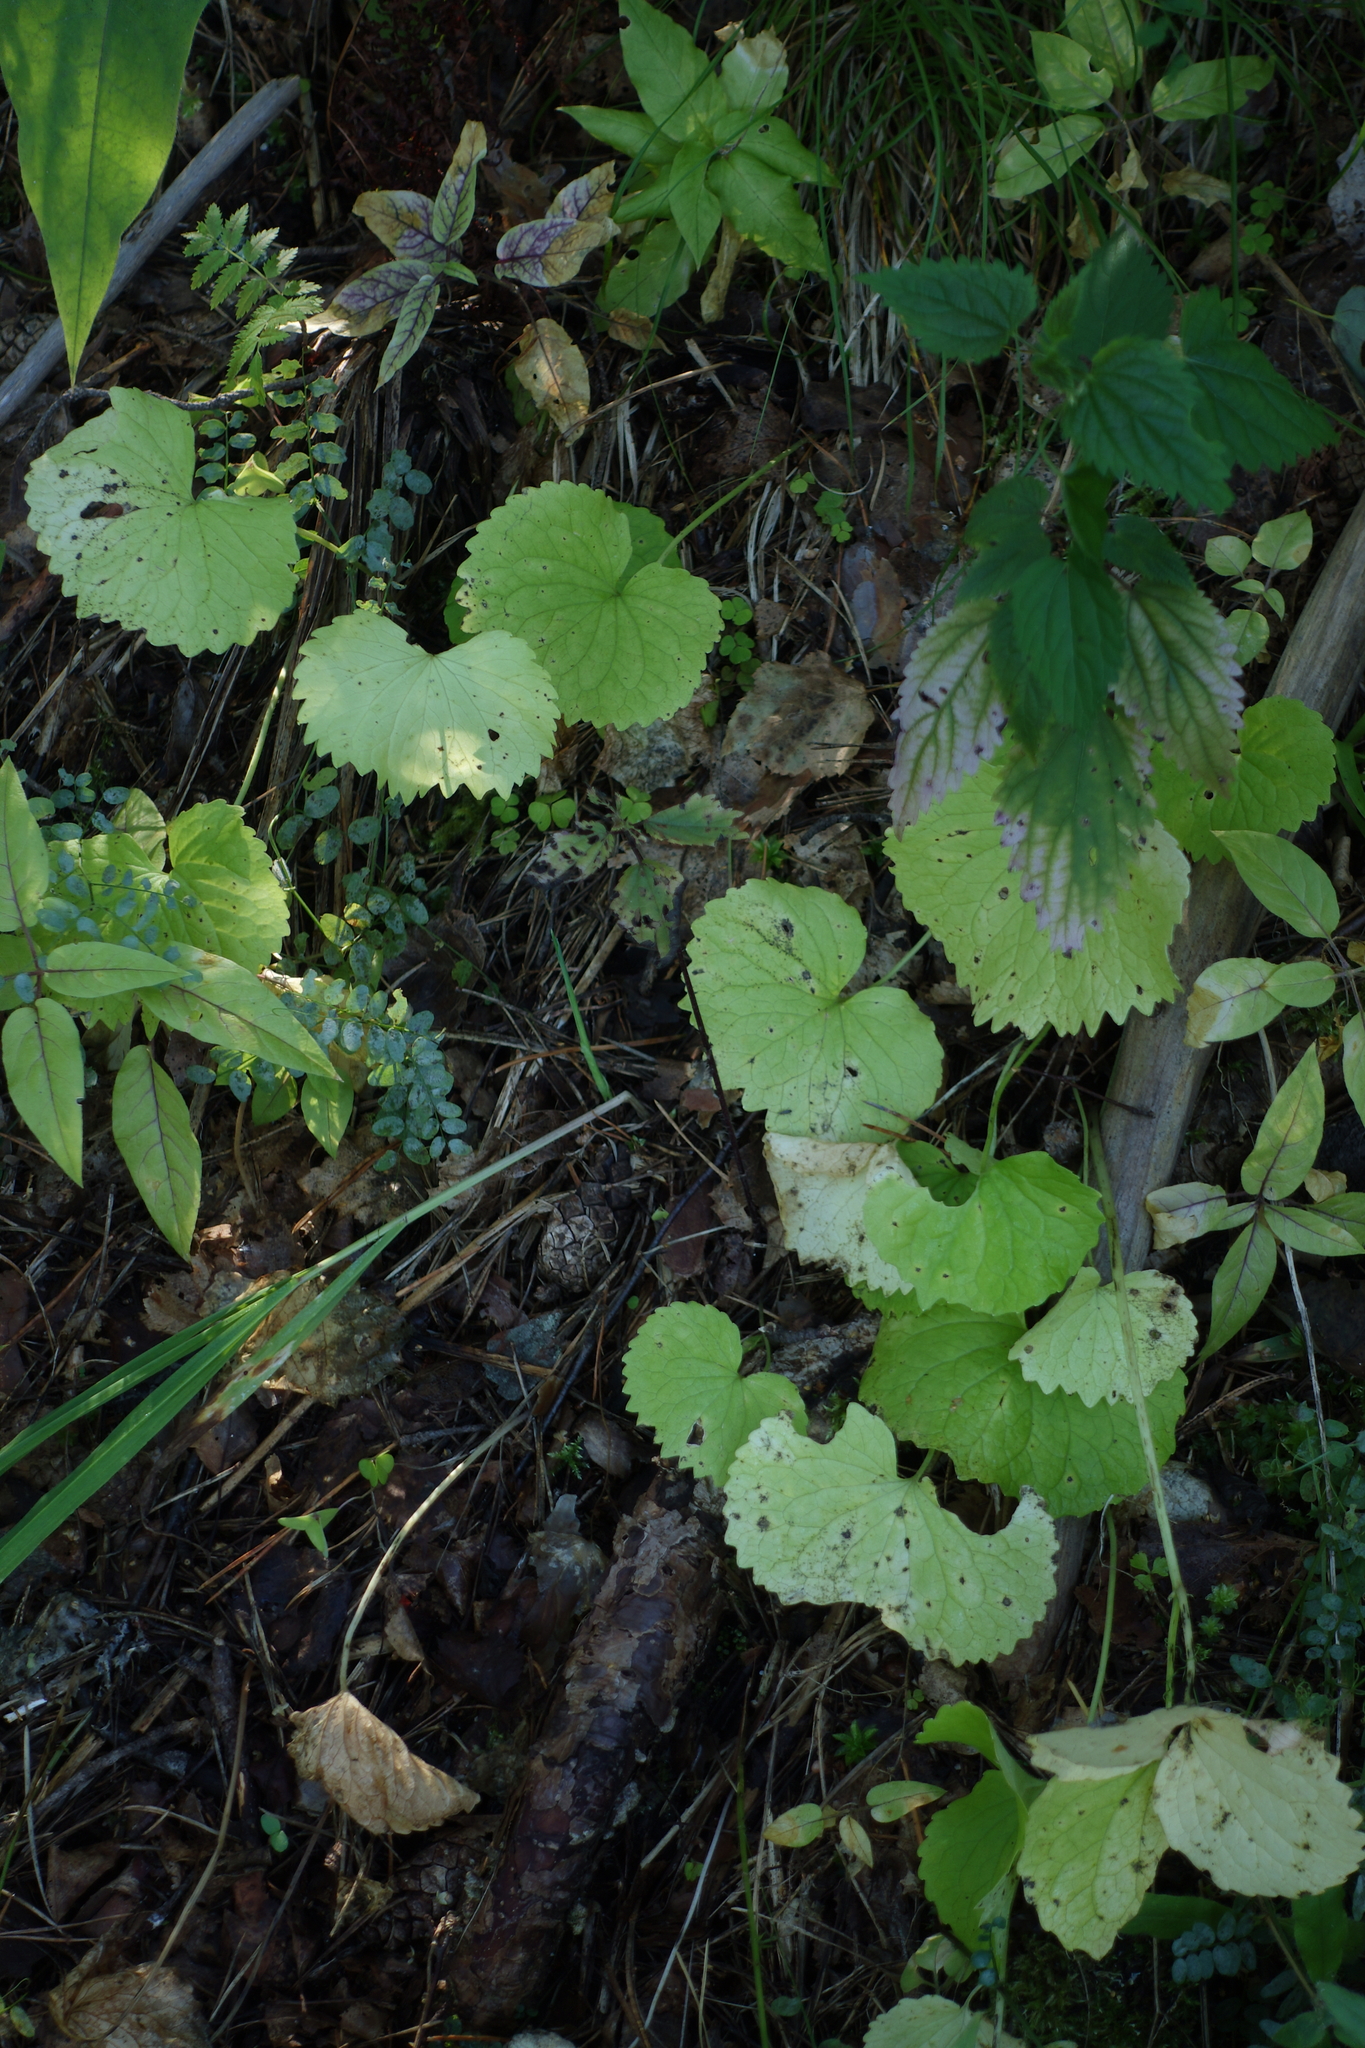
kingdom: Plantae
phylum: Tracheophyta
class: Magnoliopsida
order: Malpighiales
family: Violaceae
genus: Viola
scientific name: Viola uniflora
